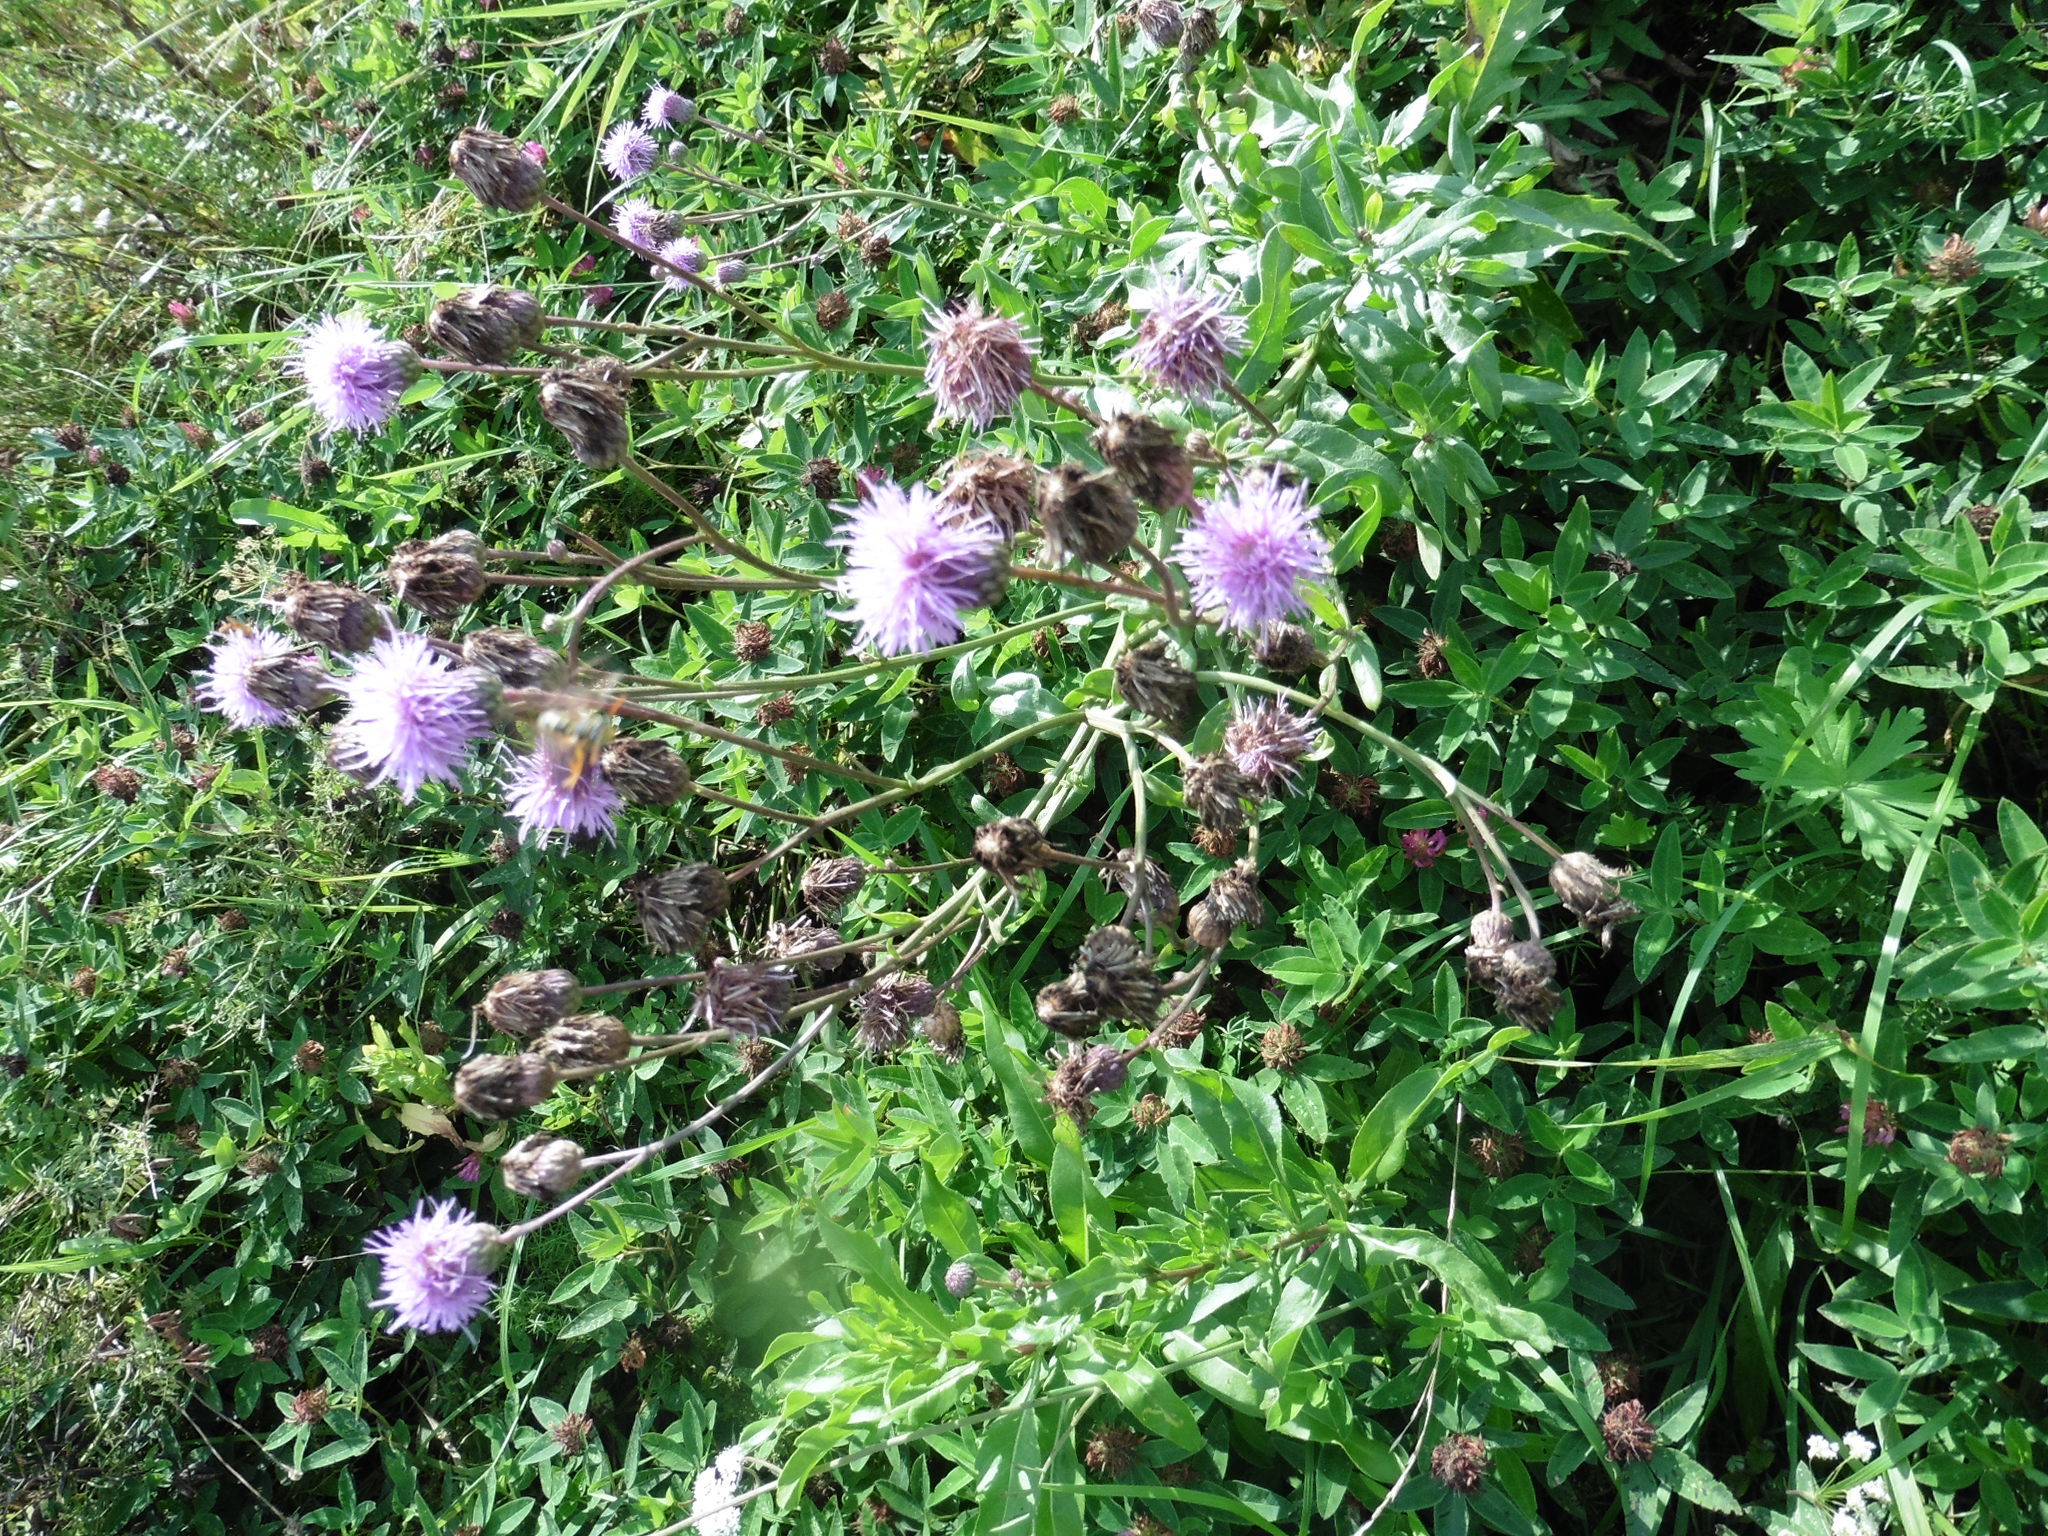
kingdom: Plantae
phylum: Tracheophyta
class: Magnoliopsida
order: Asterales
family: Asteraceae
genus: Cirsium
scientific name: Cirsium arvense
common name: Creeping thistle
